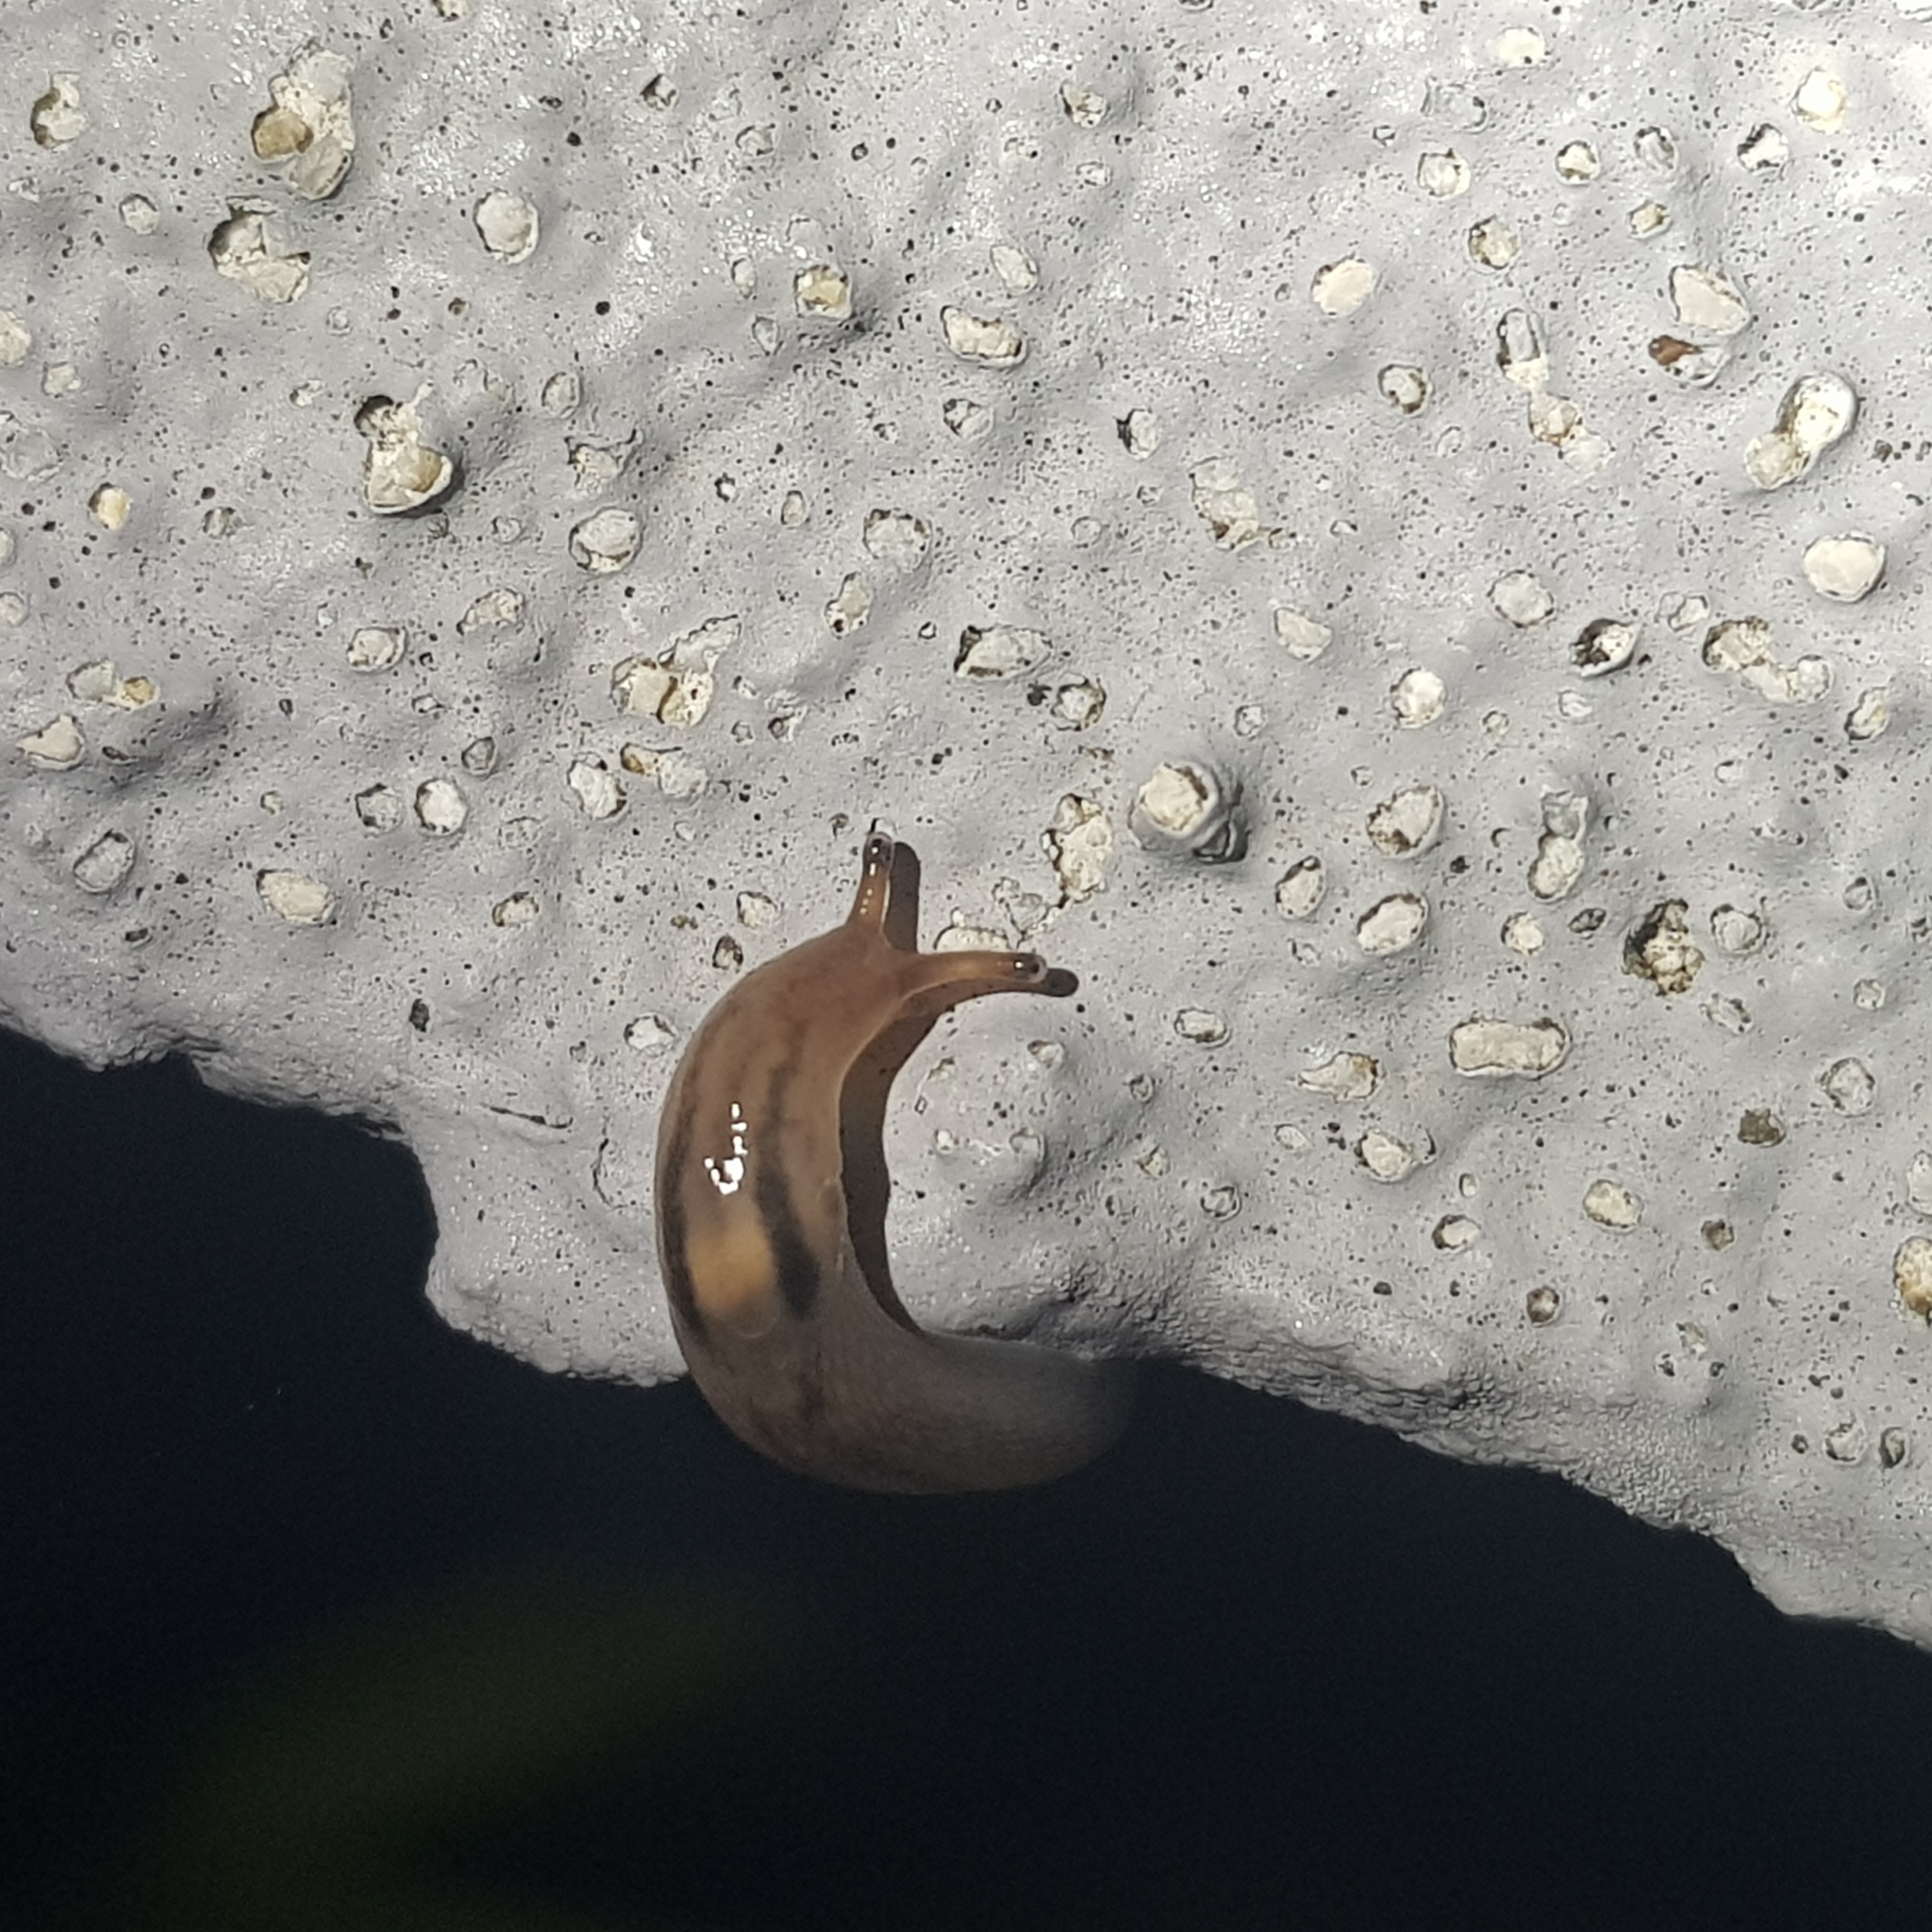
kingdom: Animalia
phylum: Mollusca
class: Gastropoda
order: Stylommatophora
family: Limacidae
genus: Ambigolimax
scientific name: Ambigolimax
